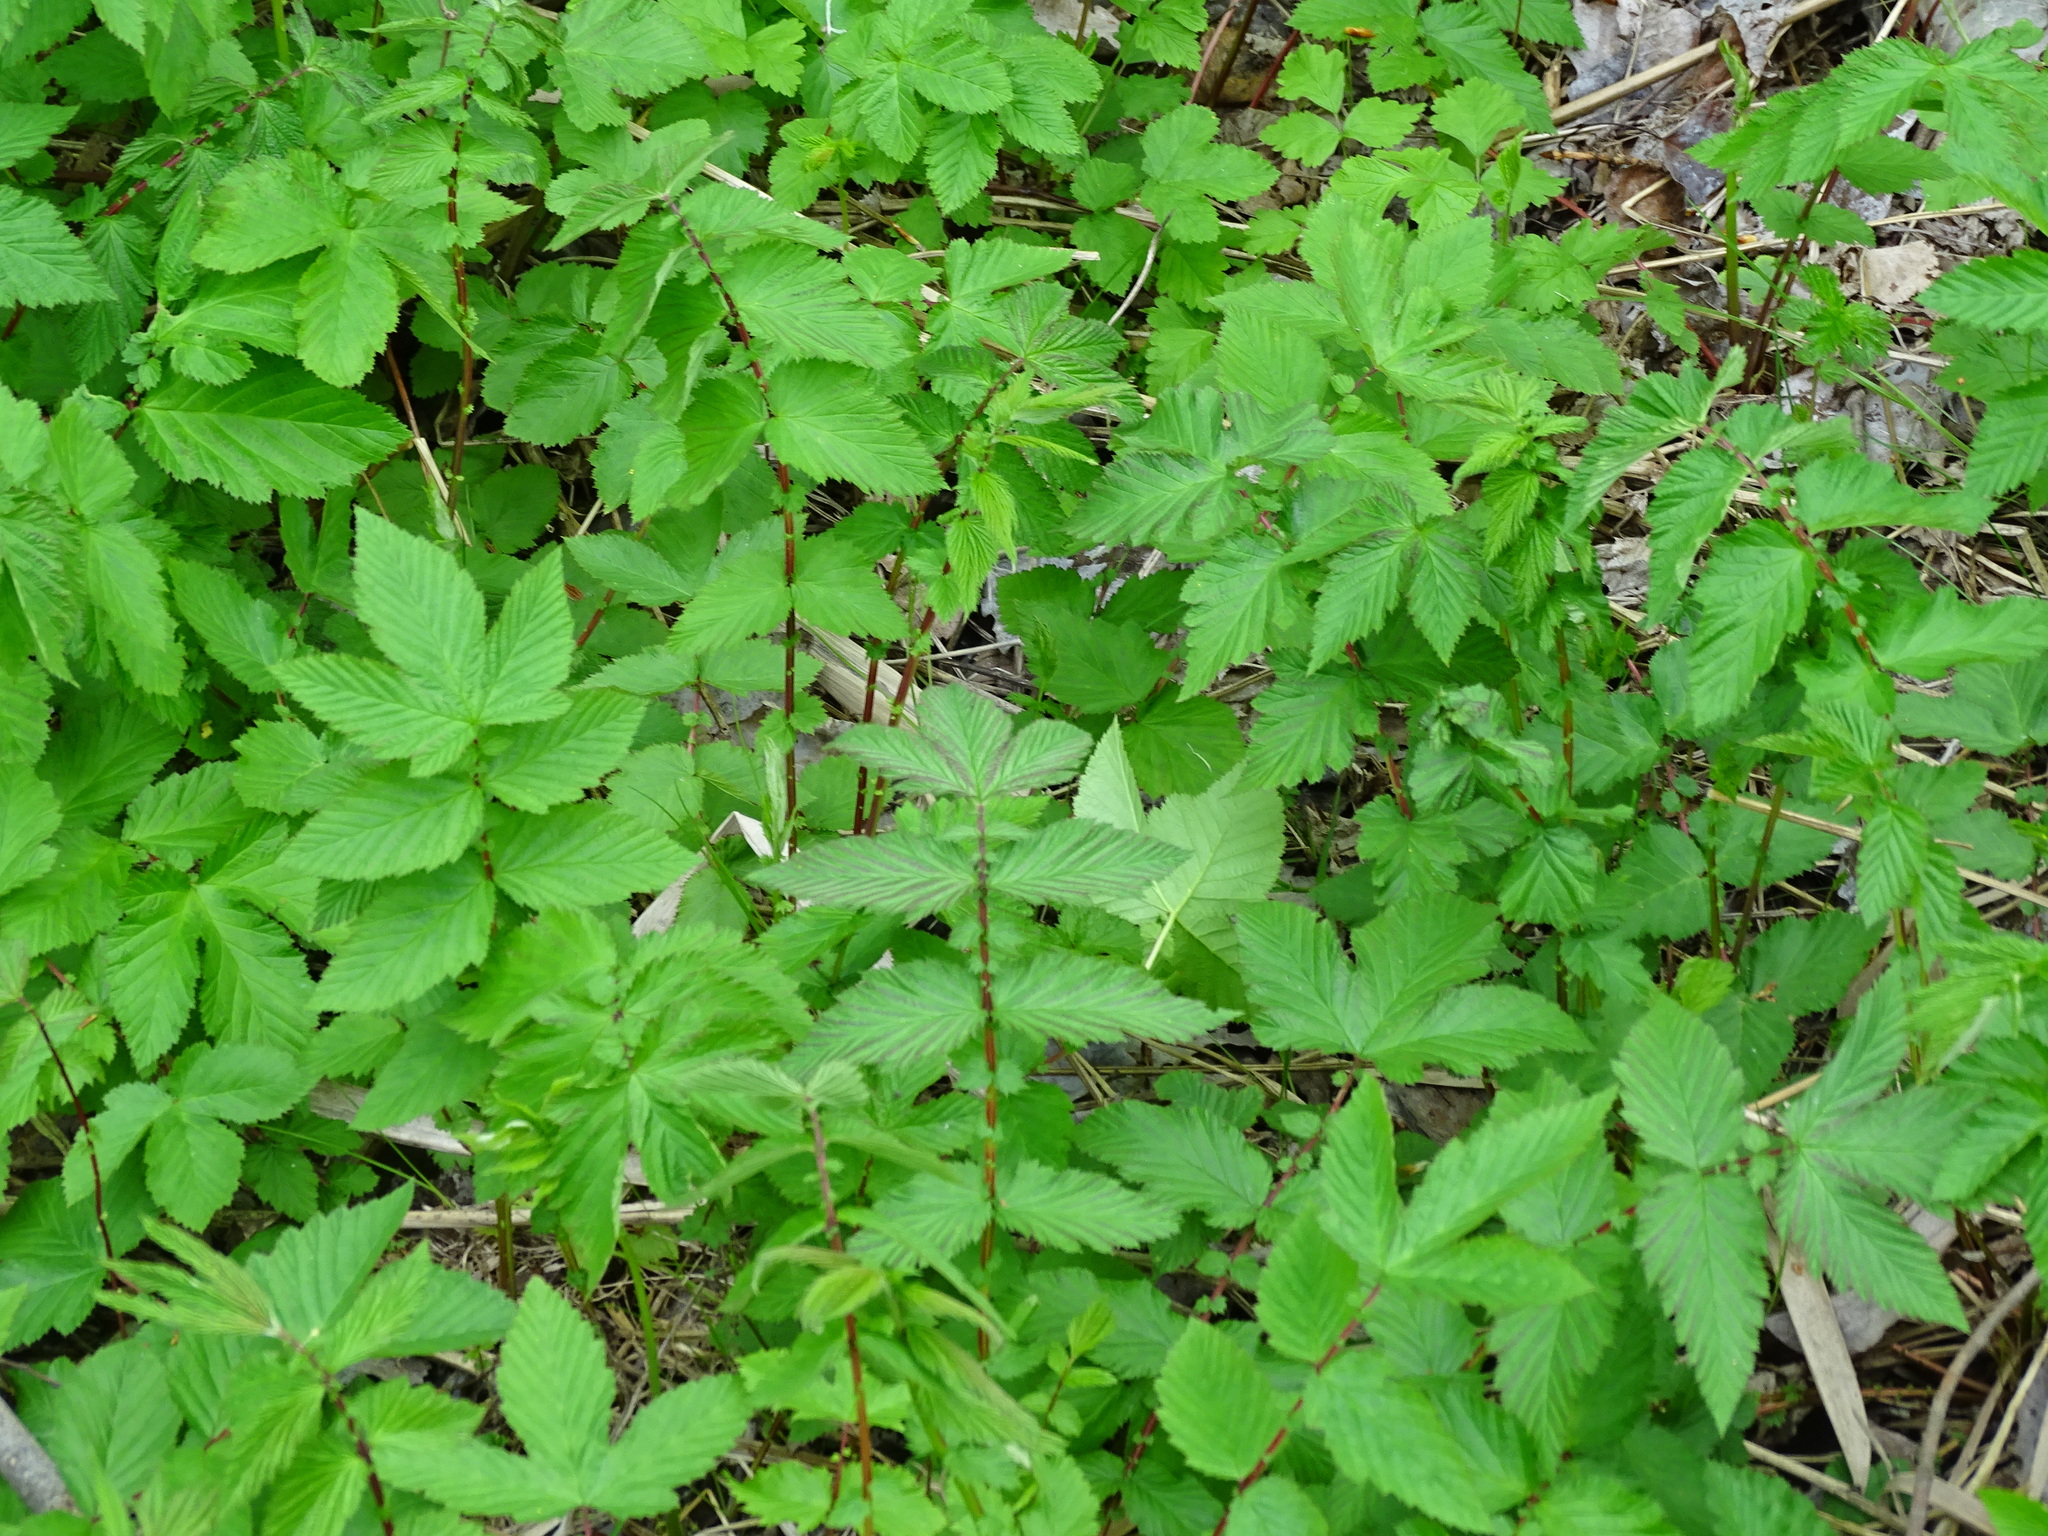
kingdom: Plantae
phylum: Tracheophyta
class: Magnoliopsida
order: Rosales
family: Rosaceae
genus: Filipendula
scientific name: Filipendula ulmaria
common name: Meadowsweet
